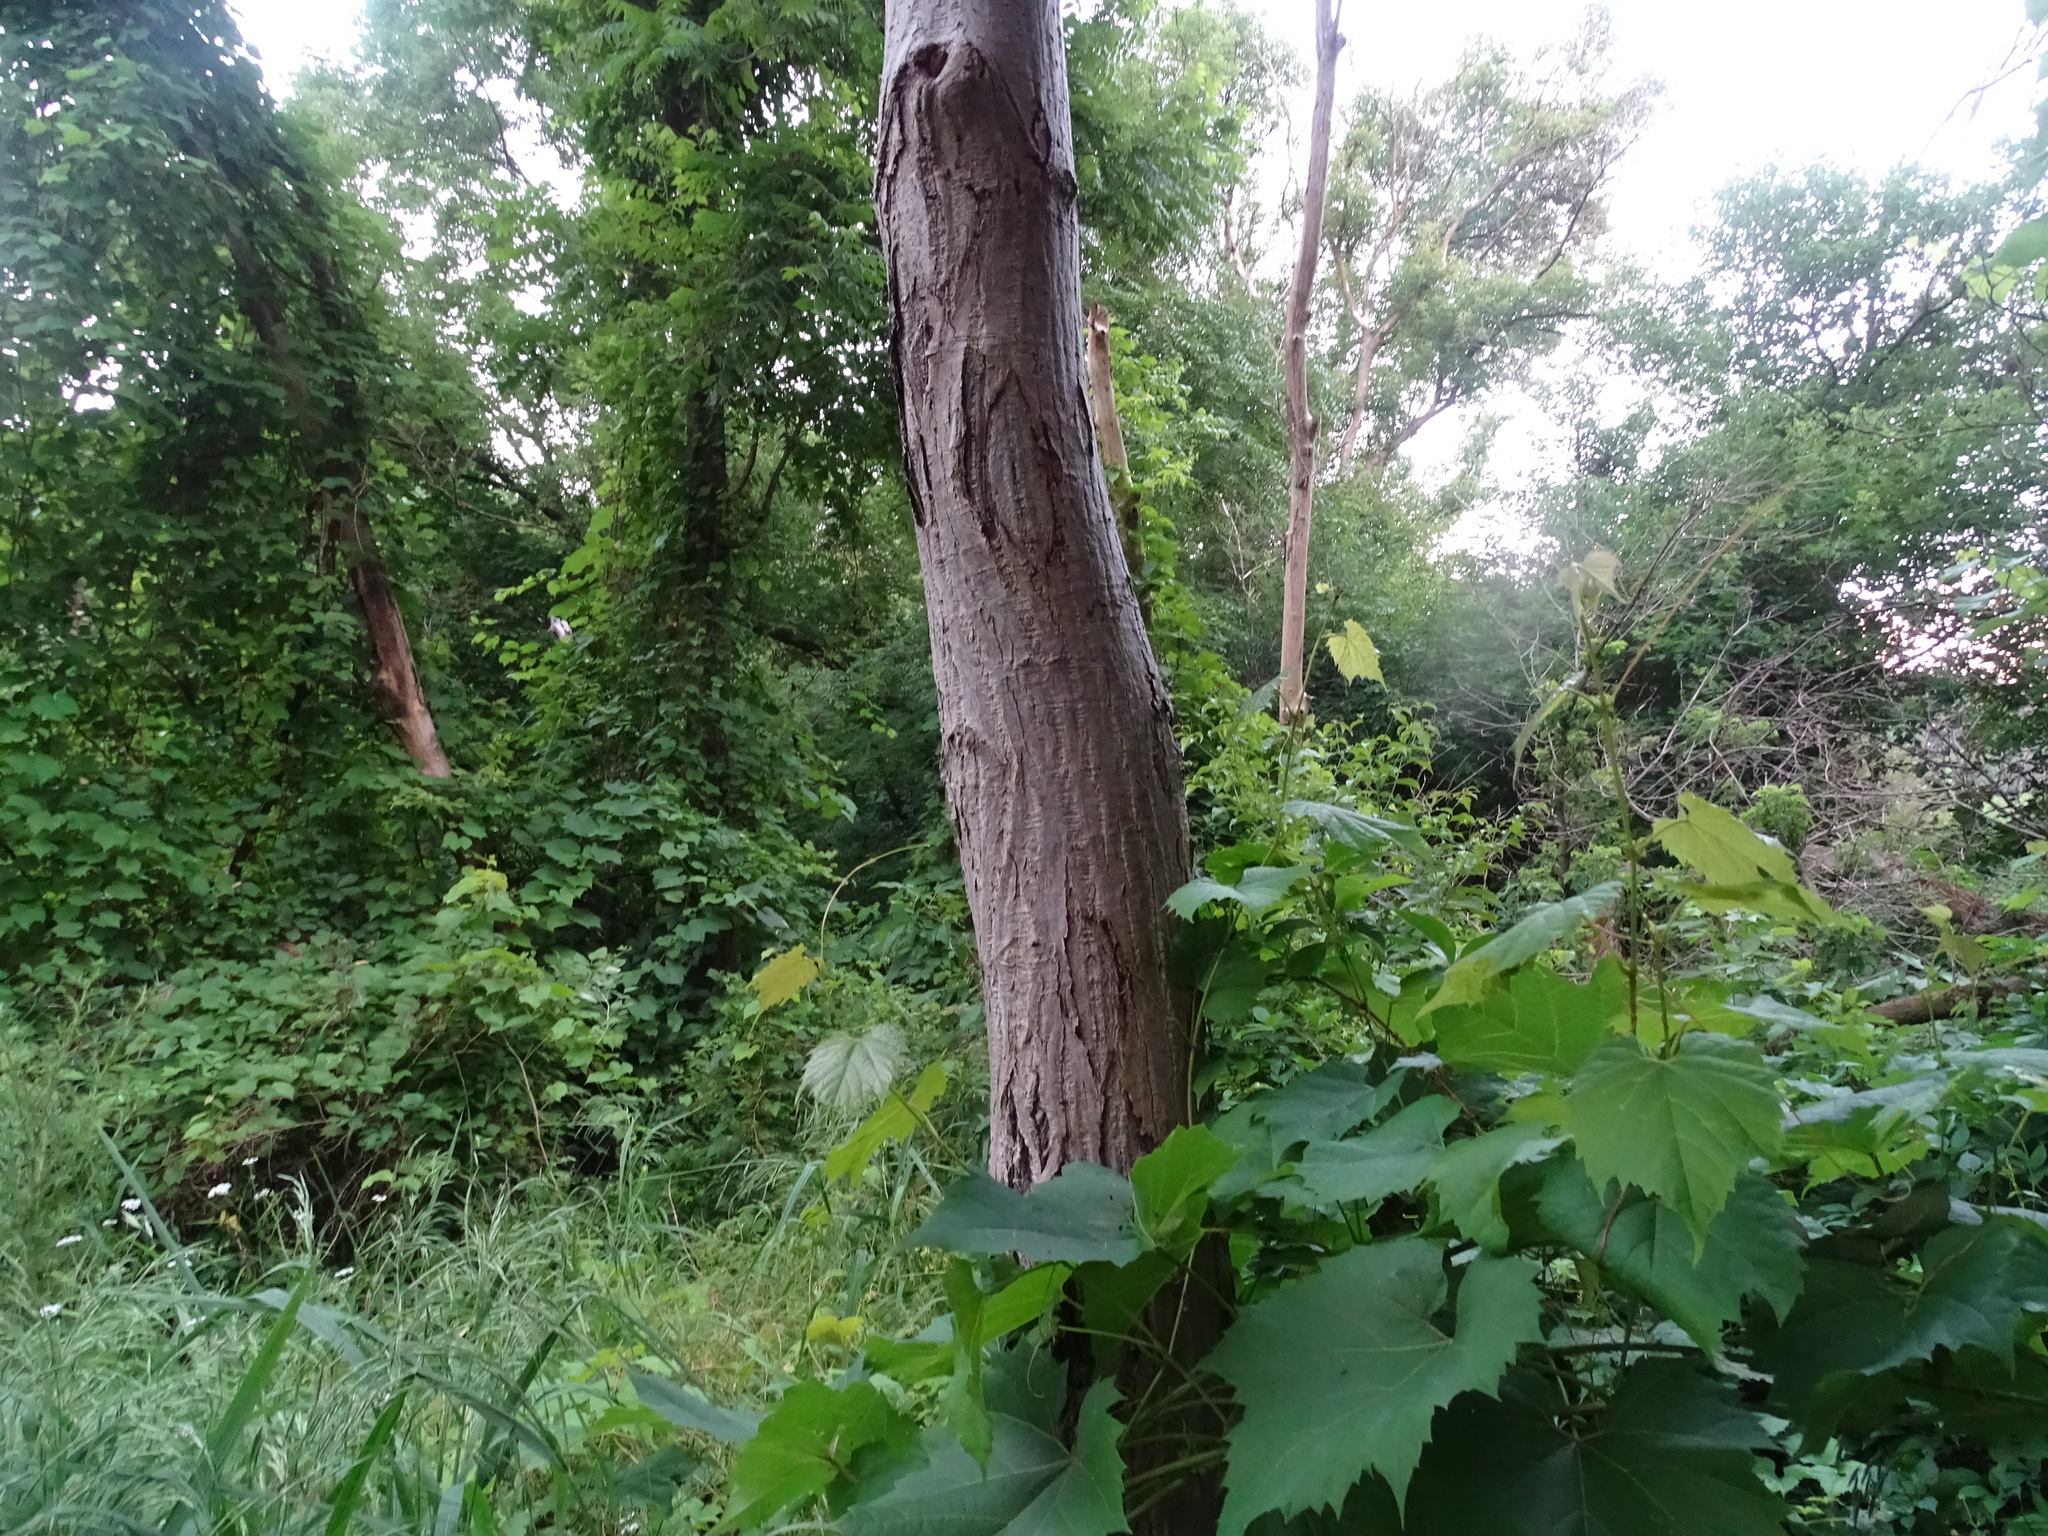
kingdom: Plantae
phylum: Tracheophyta
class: Magnoliopsida
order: Fagales
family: Juglandaceae
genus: Juglans
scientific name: Juglans cinerea
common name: Butternut
